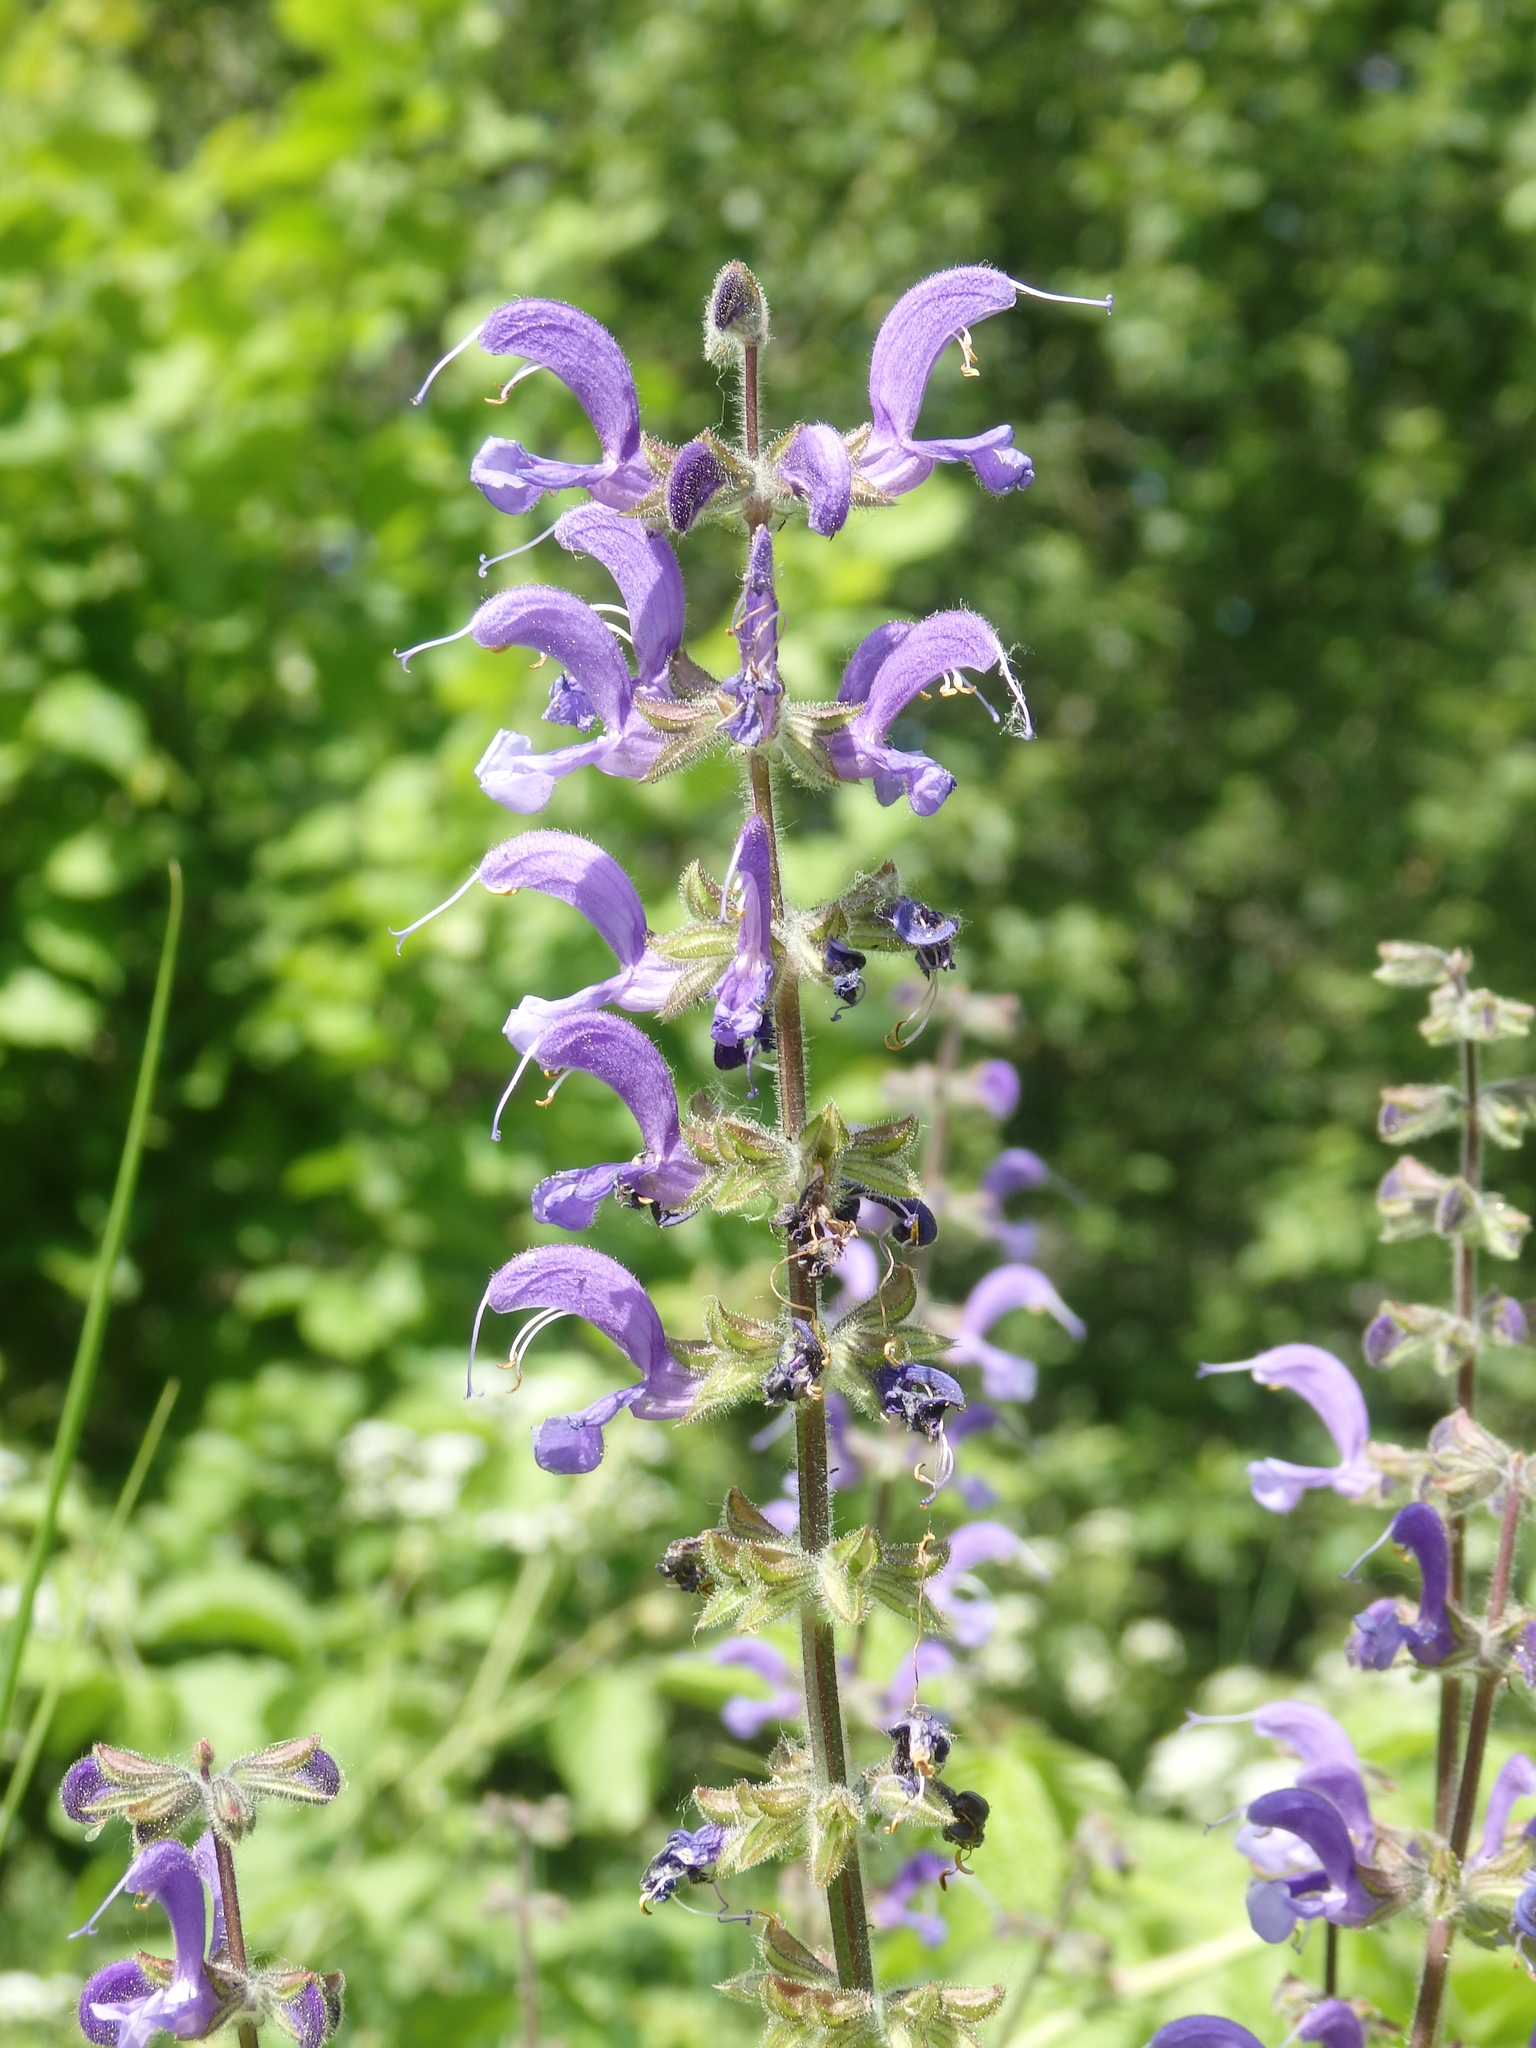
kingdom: Plantae
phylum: Tracheophyta
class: Magnoliopsida
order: Lamiales
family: Lamiaceae
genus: Salvia
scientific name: Salvia pratensis
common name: Meadow sage
